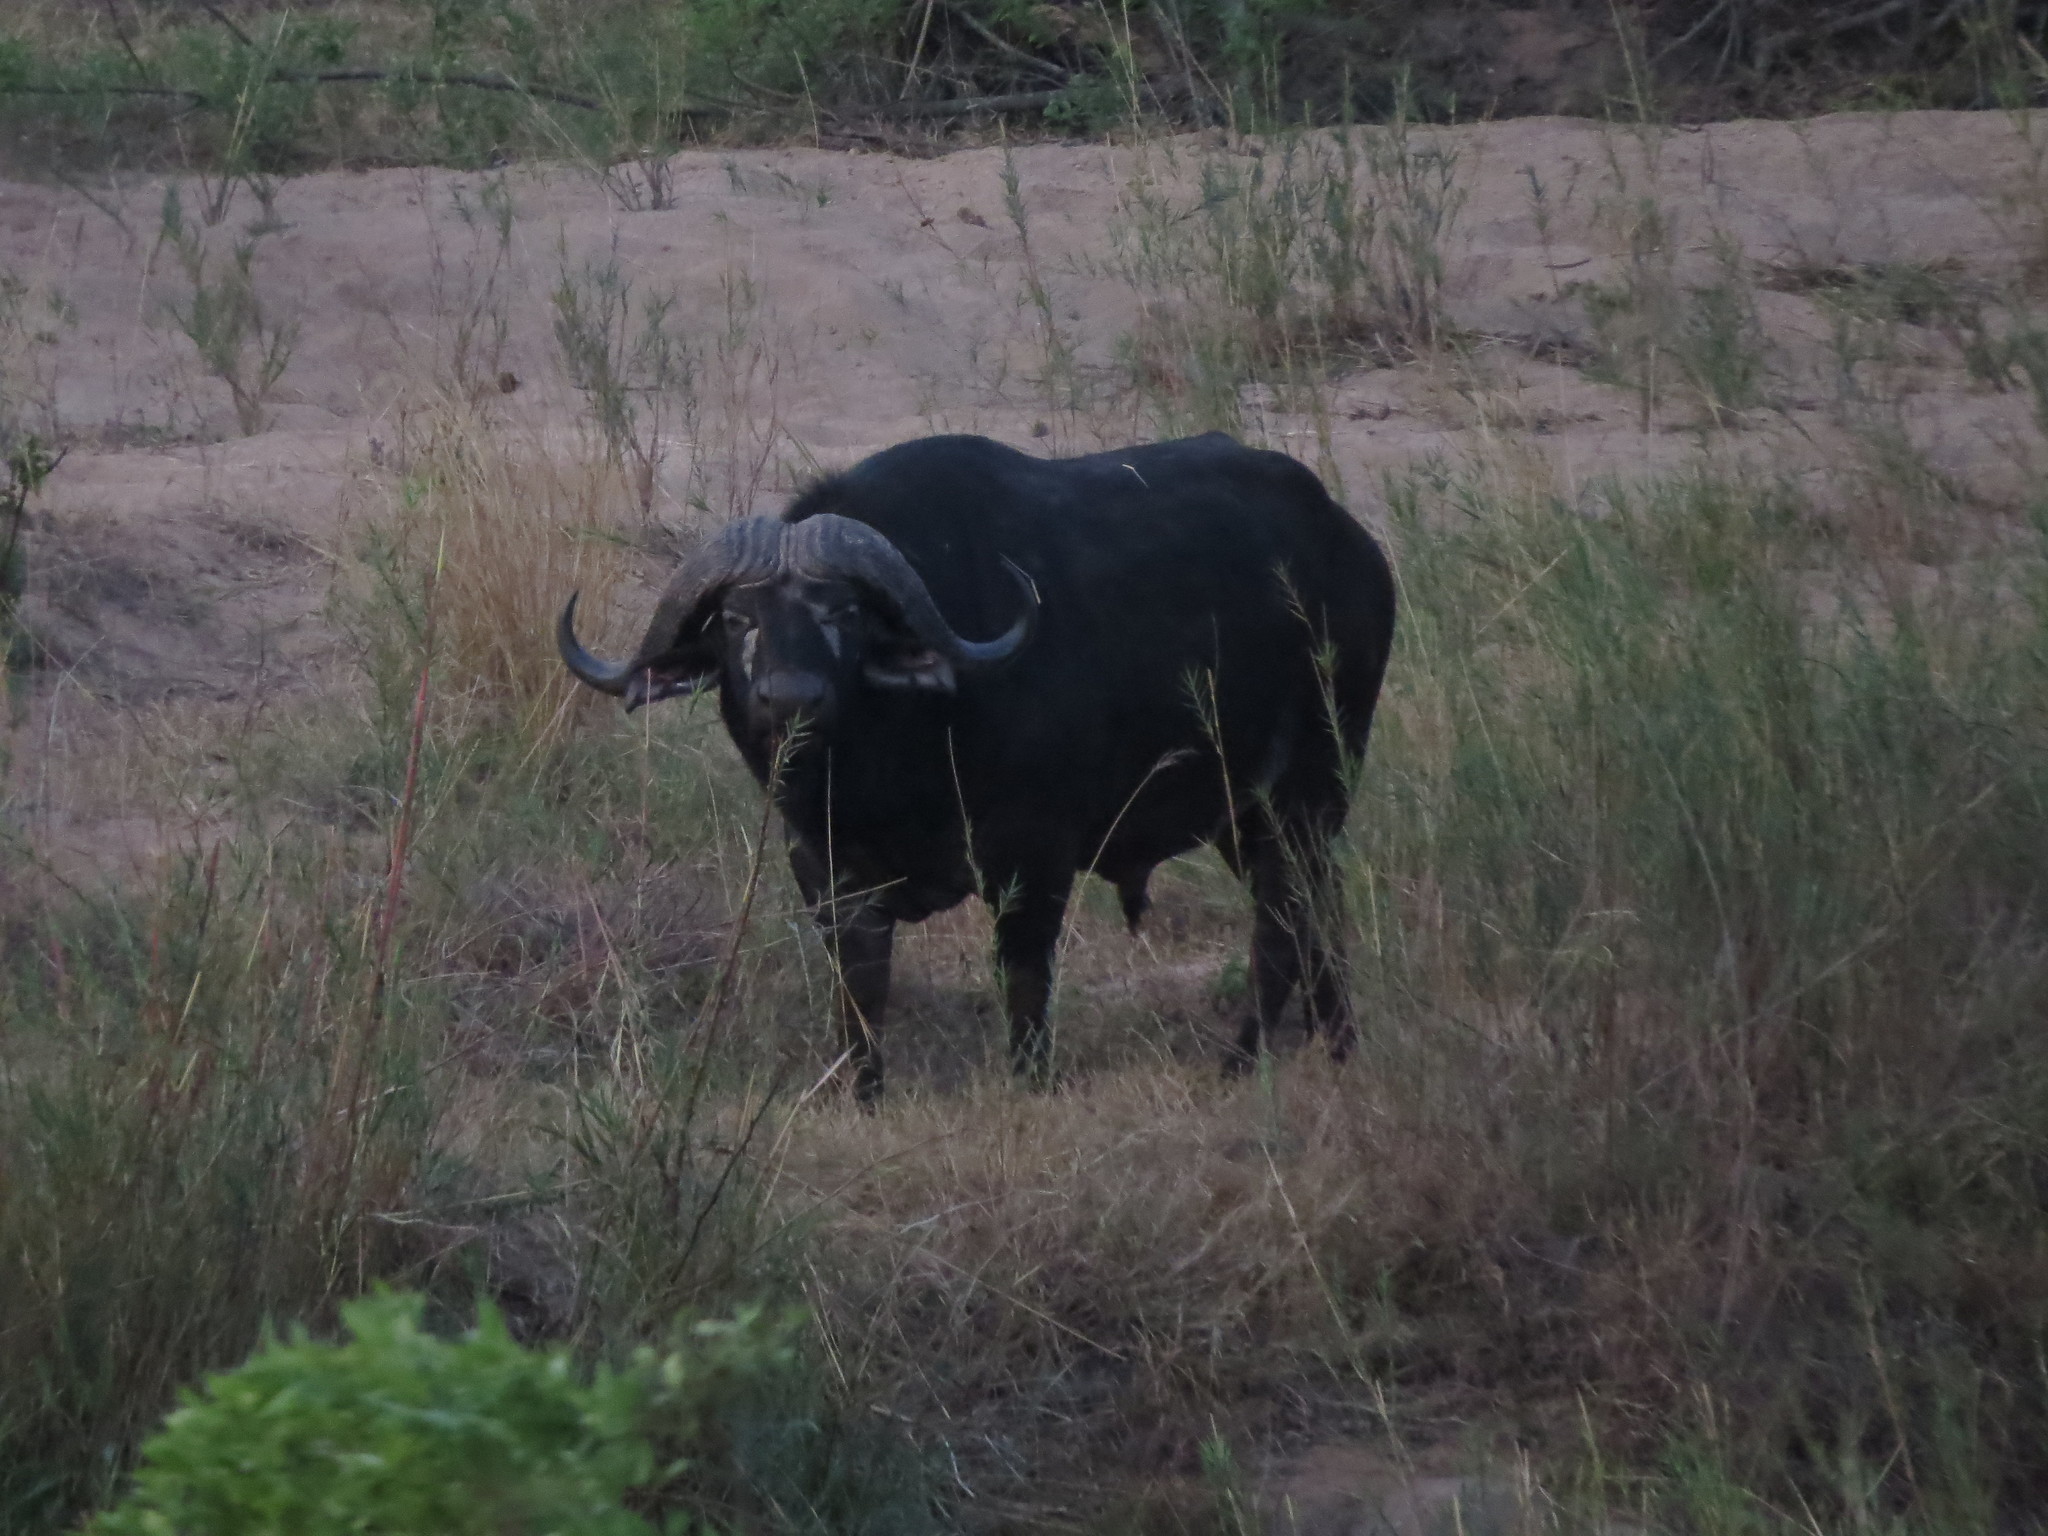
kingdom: Animalia
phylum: Chordata
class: Mammalia
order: Artiodactyla
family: Bovidae
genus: Syncerus
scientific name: Syncerus caffer
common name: African buffalo
